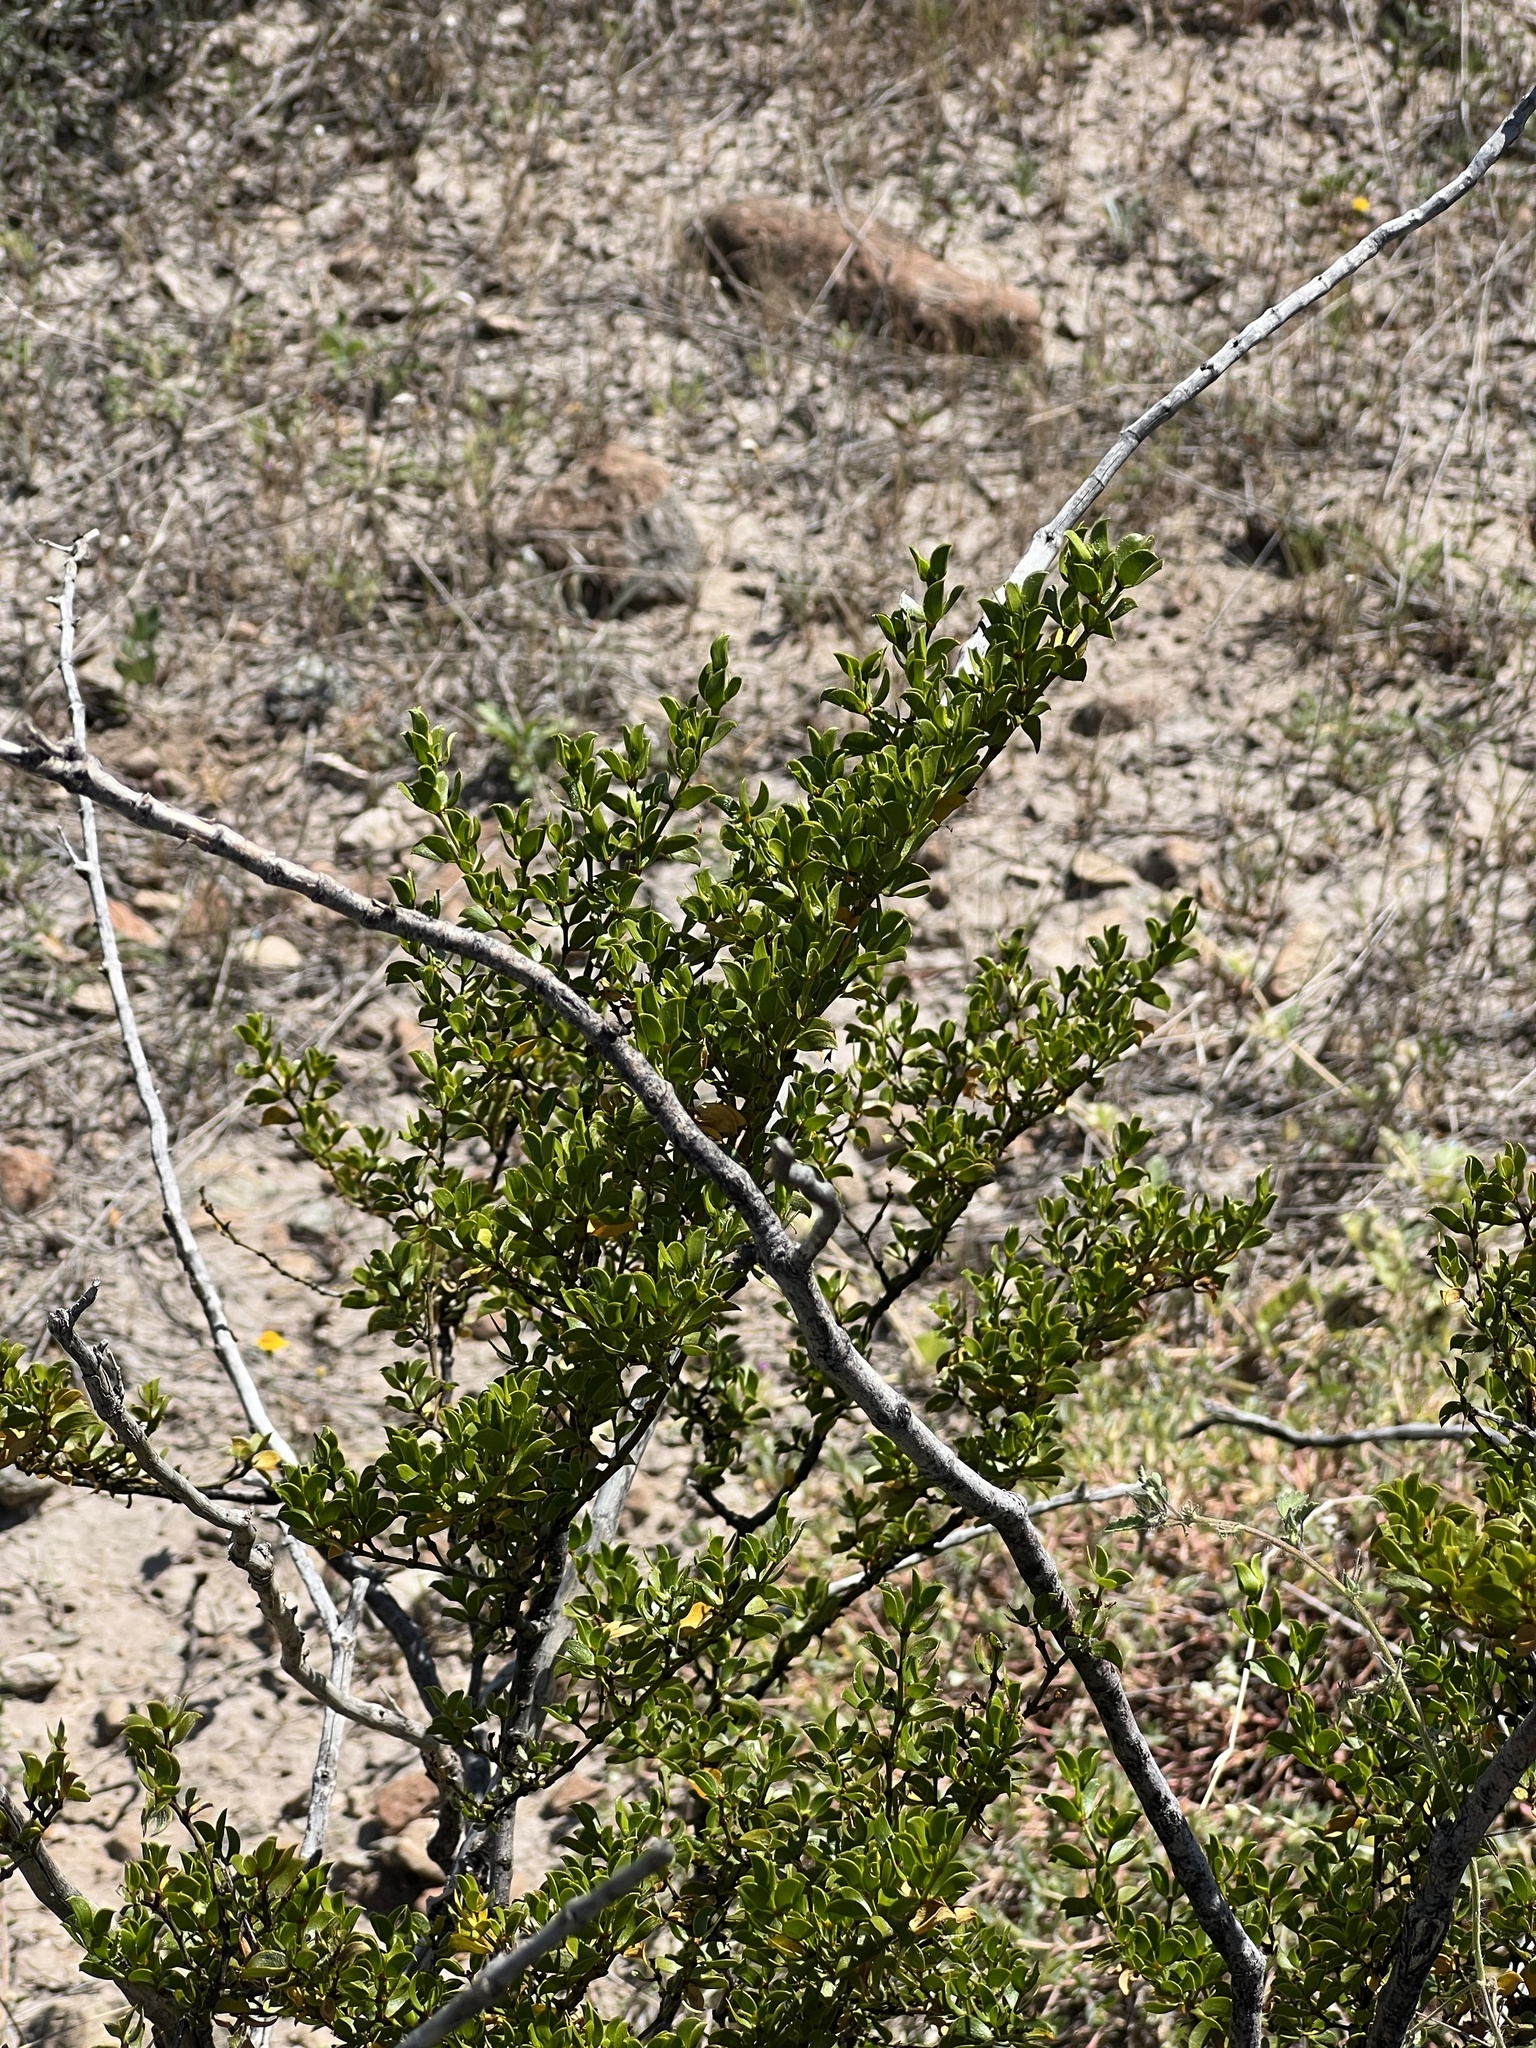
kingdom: Plantae
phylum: Tracheophyta
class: Magnoliopsida
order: Zygophyllales
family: Zygophyllaceae
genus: Larrea
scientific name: Larrea tridentata
